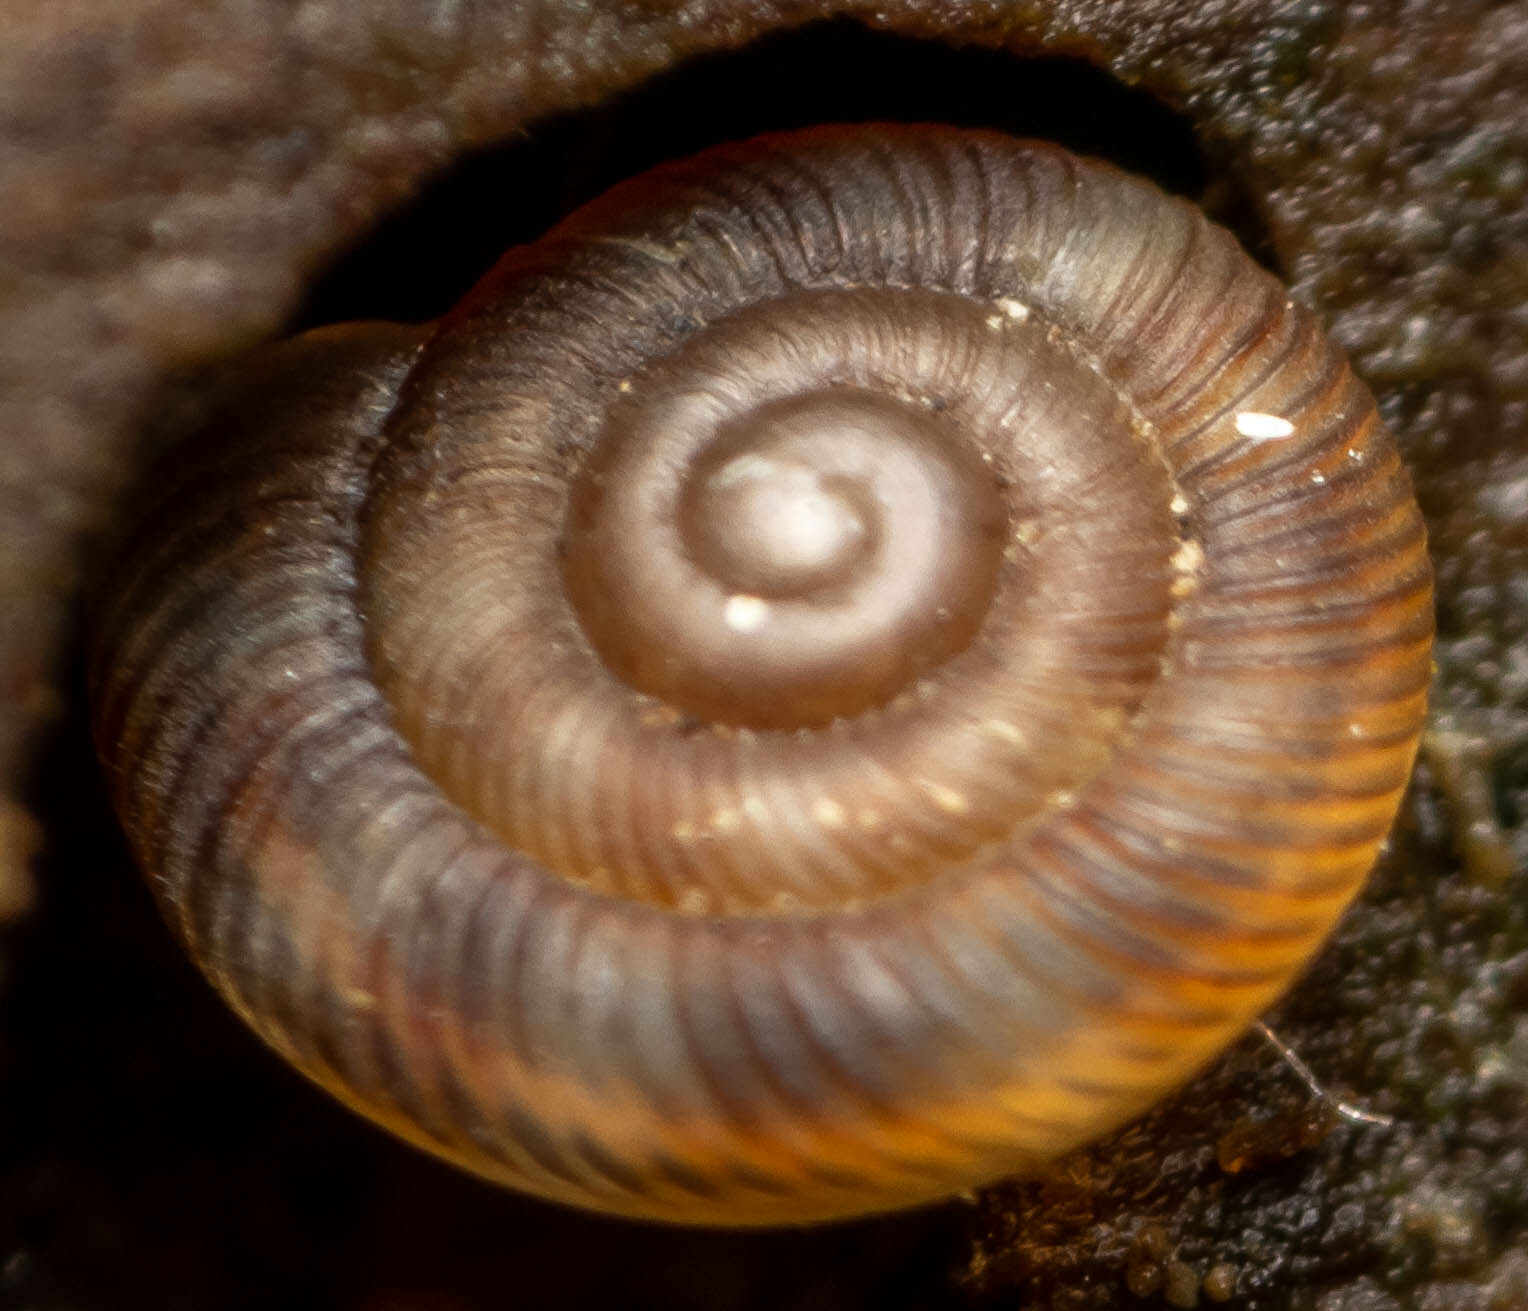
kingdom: Animalia
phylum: Mollusca
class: Gastropoda
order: Stylommatophora
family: Discidae
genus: Discus
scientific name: Discus rotundatus
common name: Rounded snail
